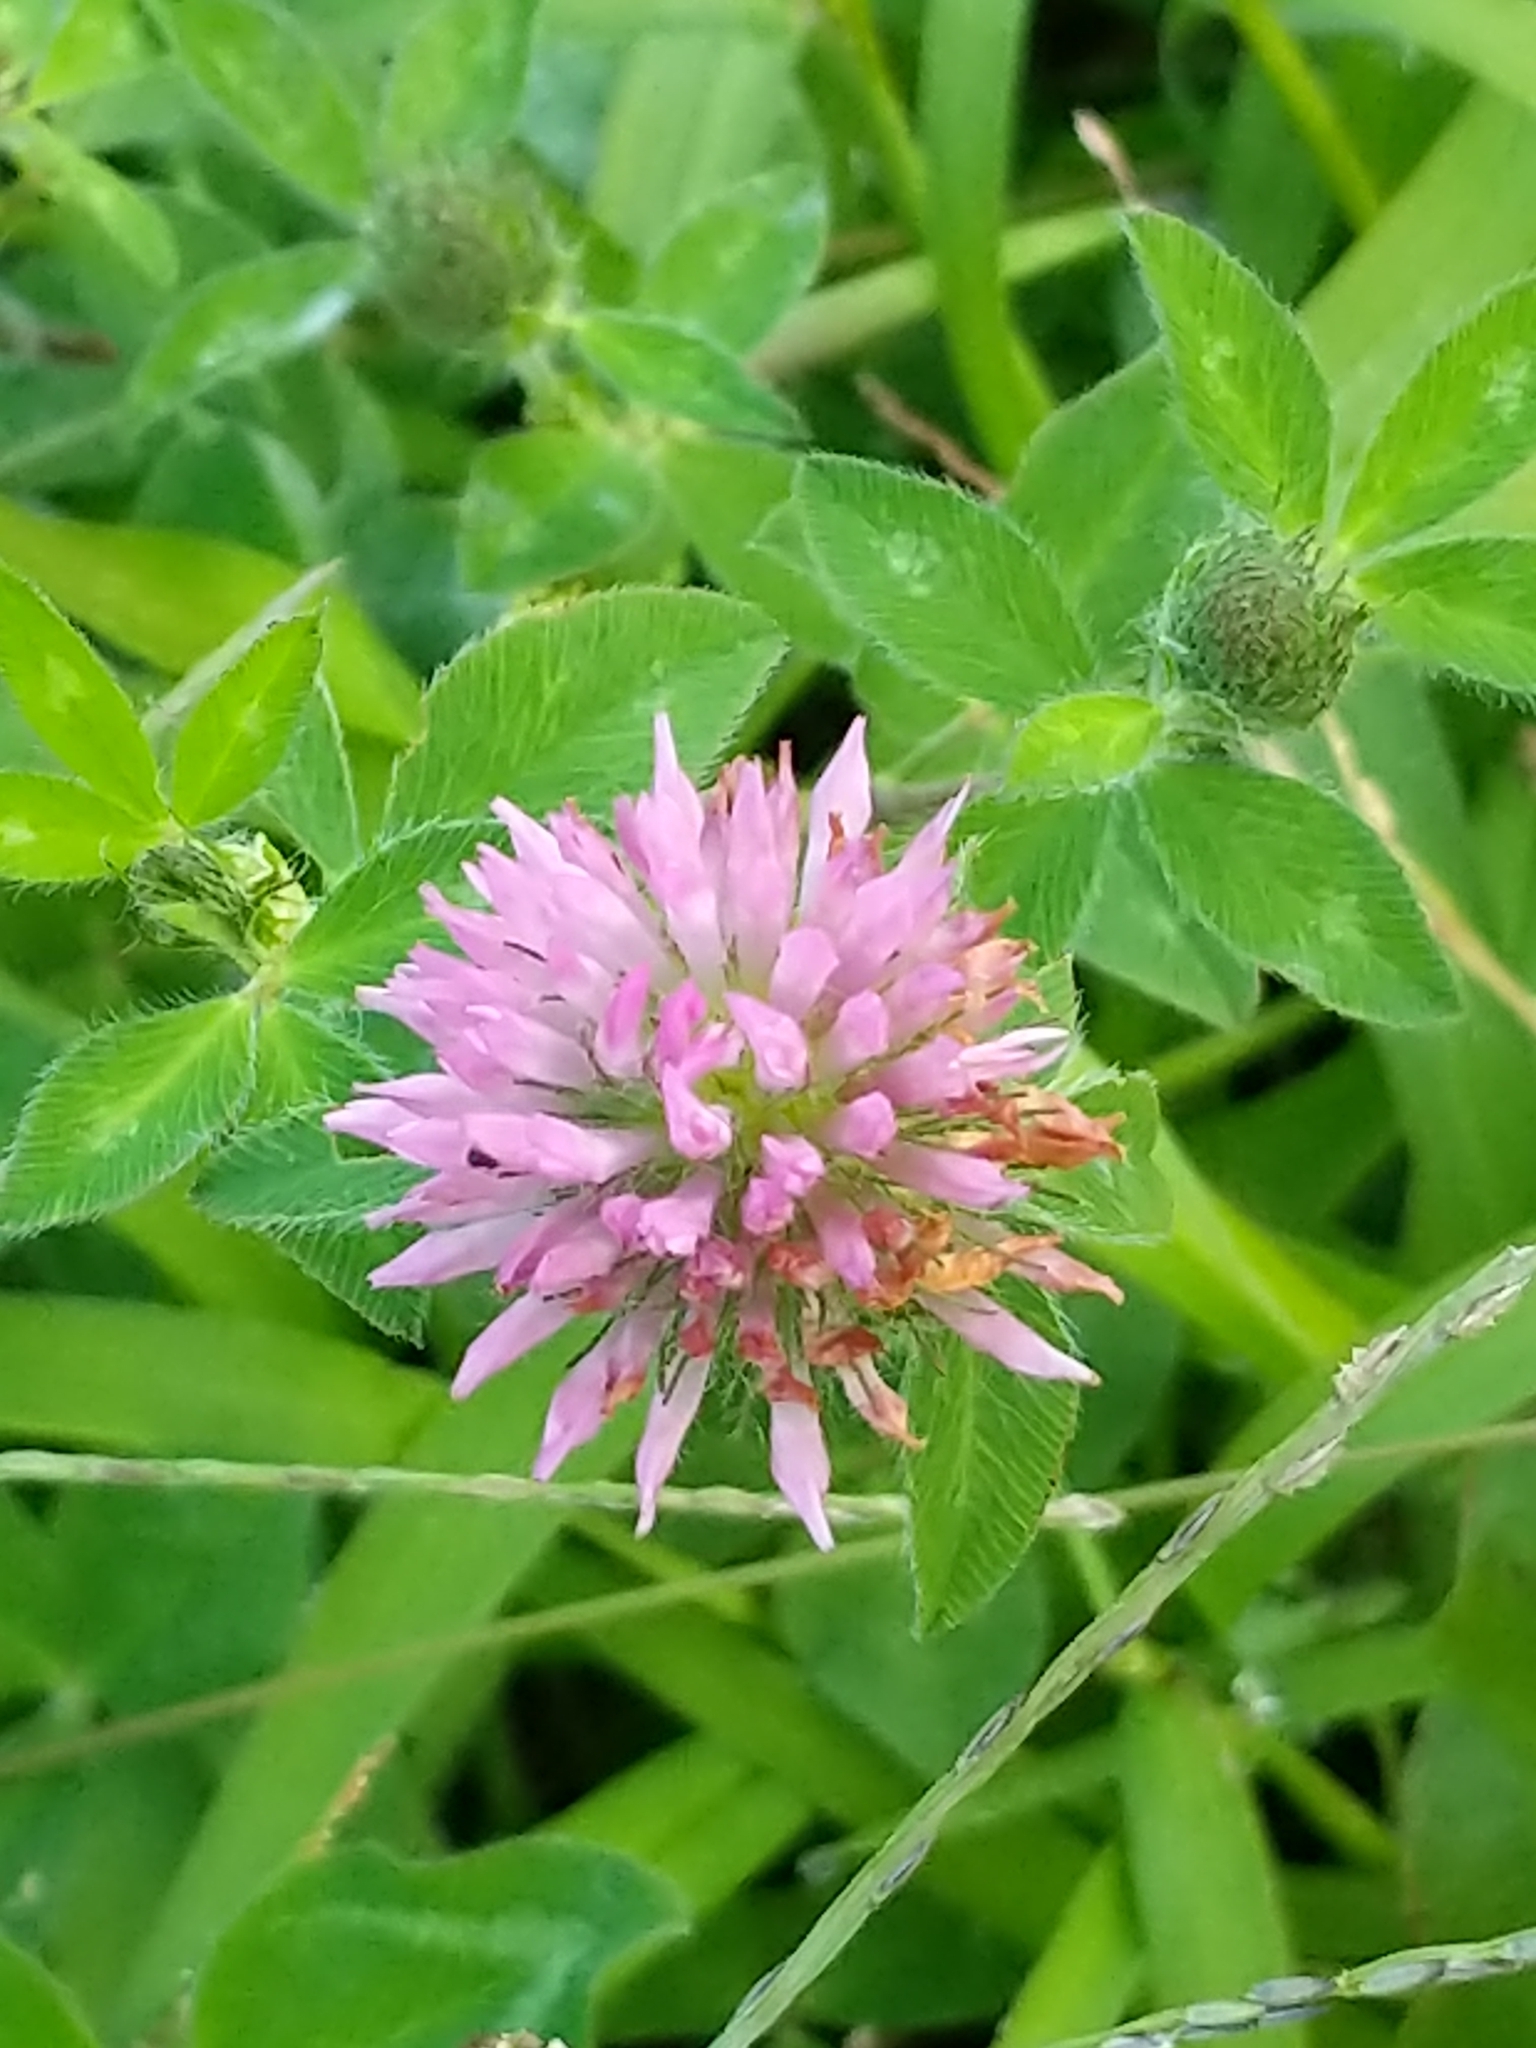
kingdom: Plantae
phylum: Tracheophyta
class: Magnoliopsida
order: Fabales
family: Fabaceae
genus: Trifolium
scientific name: Trifolium pratense
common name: Red clover
